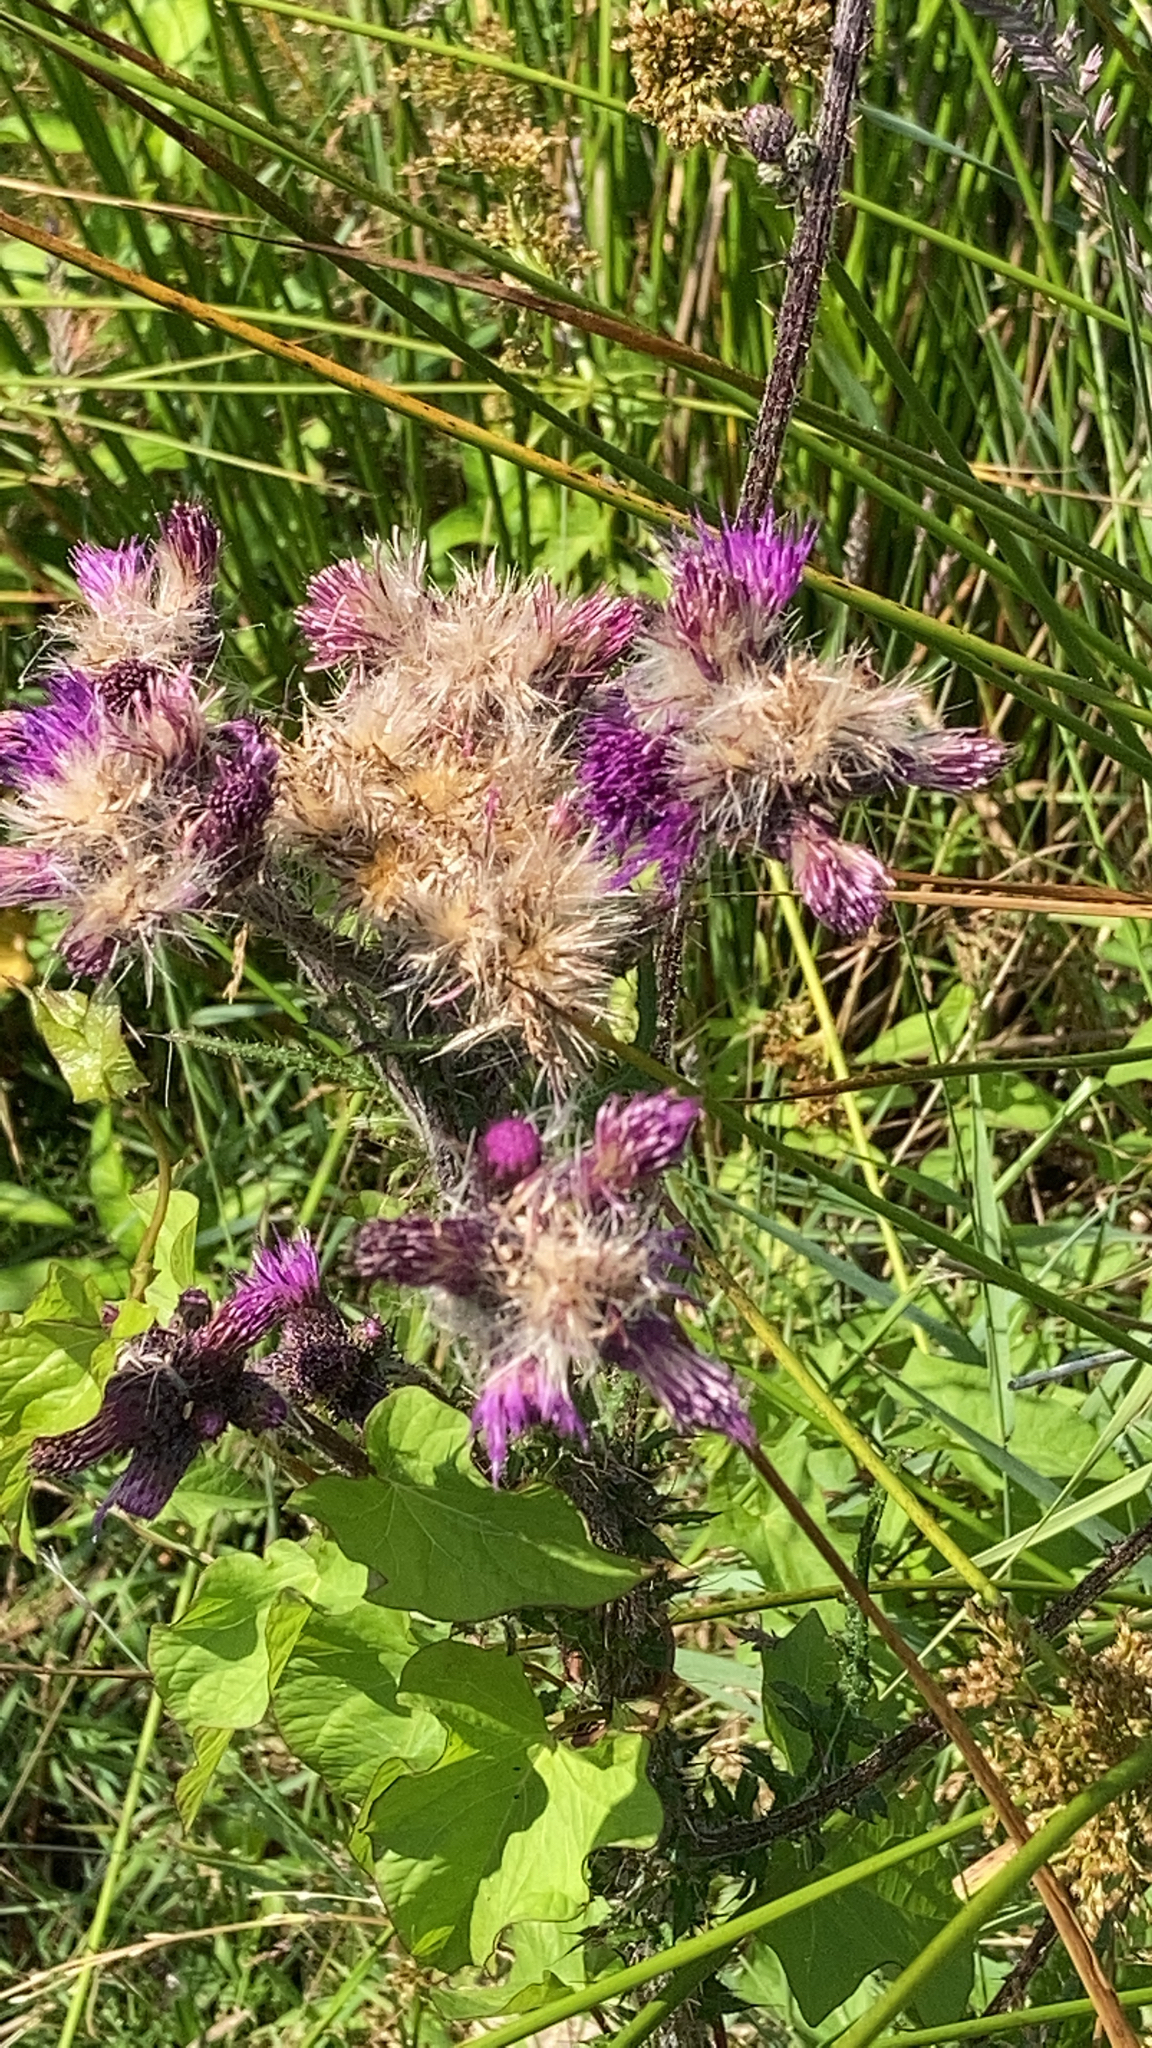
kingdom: Plantae
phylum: Tracheophyta
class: Magnoliopsida
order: Asterales
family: Asteraceae
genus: Cirsium
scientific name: Cirsium palustre
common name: Marsh thistle
